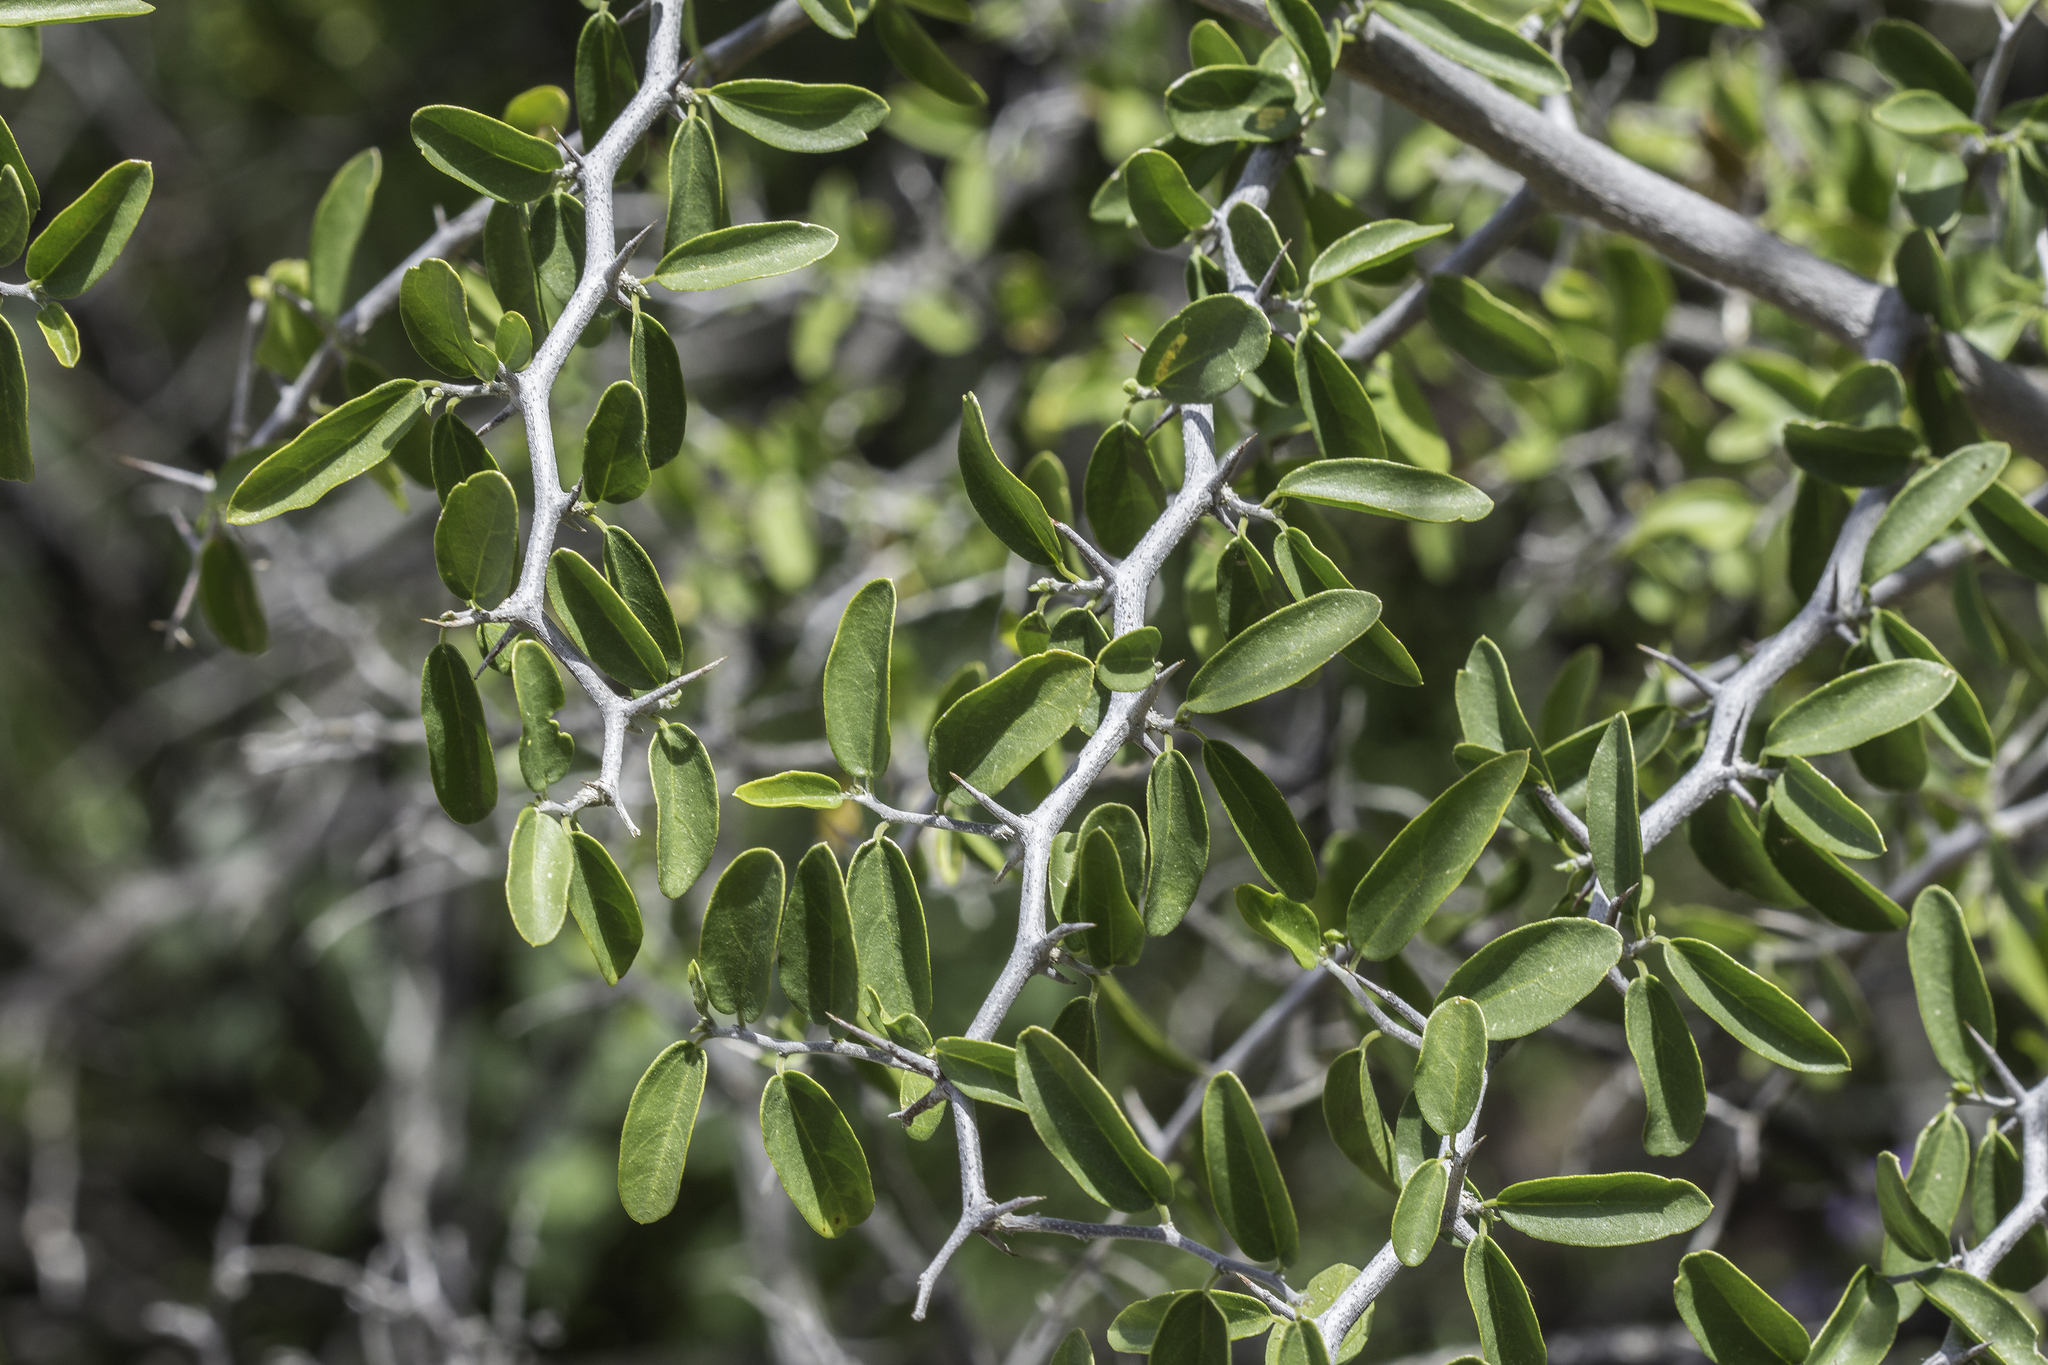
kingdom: Plantae
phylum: Tracheophyta
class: Magnoliopsida
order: Rosales
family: Cannabaceae
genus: Celtis
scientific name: Celtis pallida
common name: Desert hackberry
